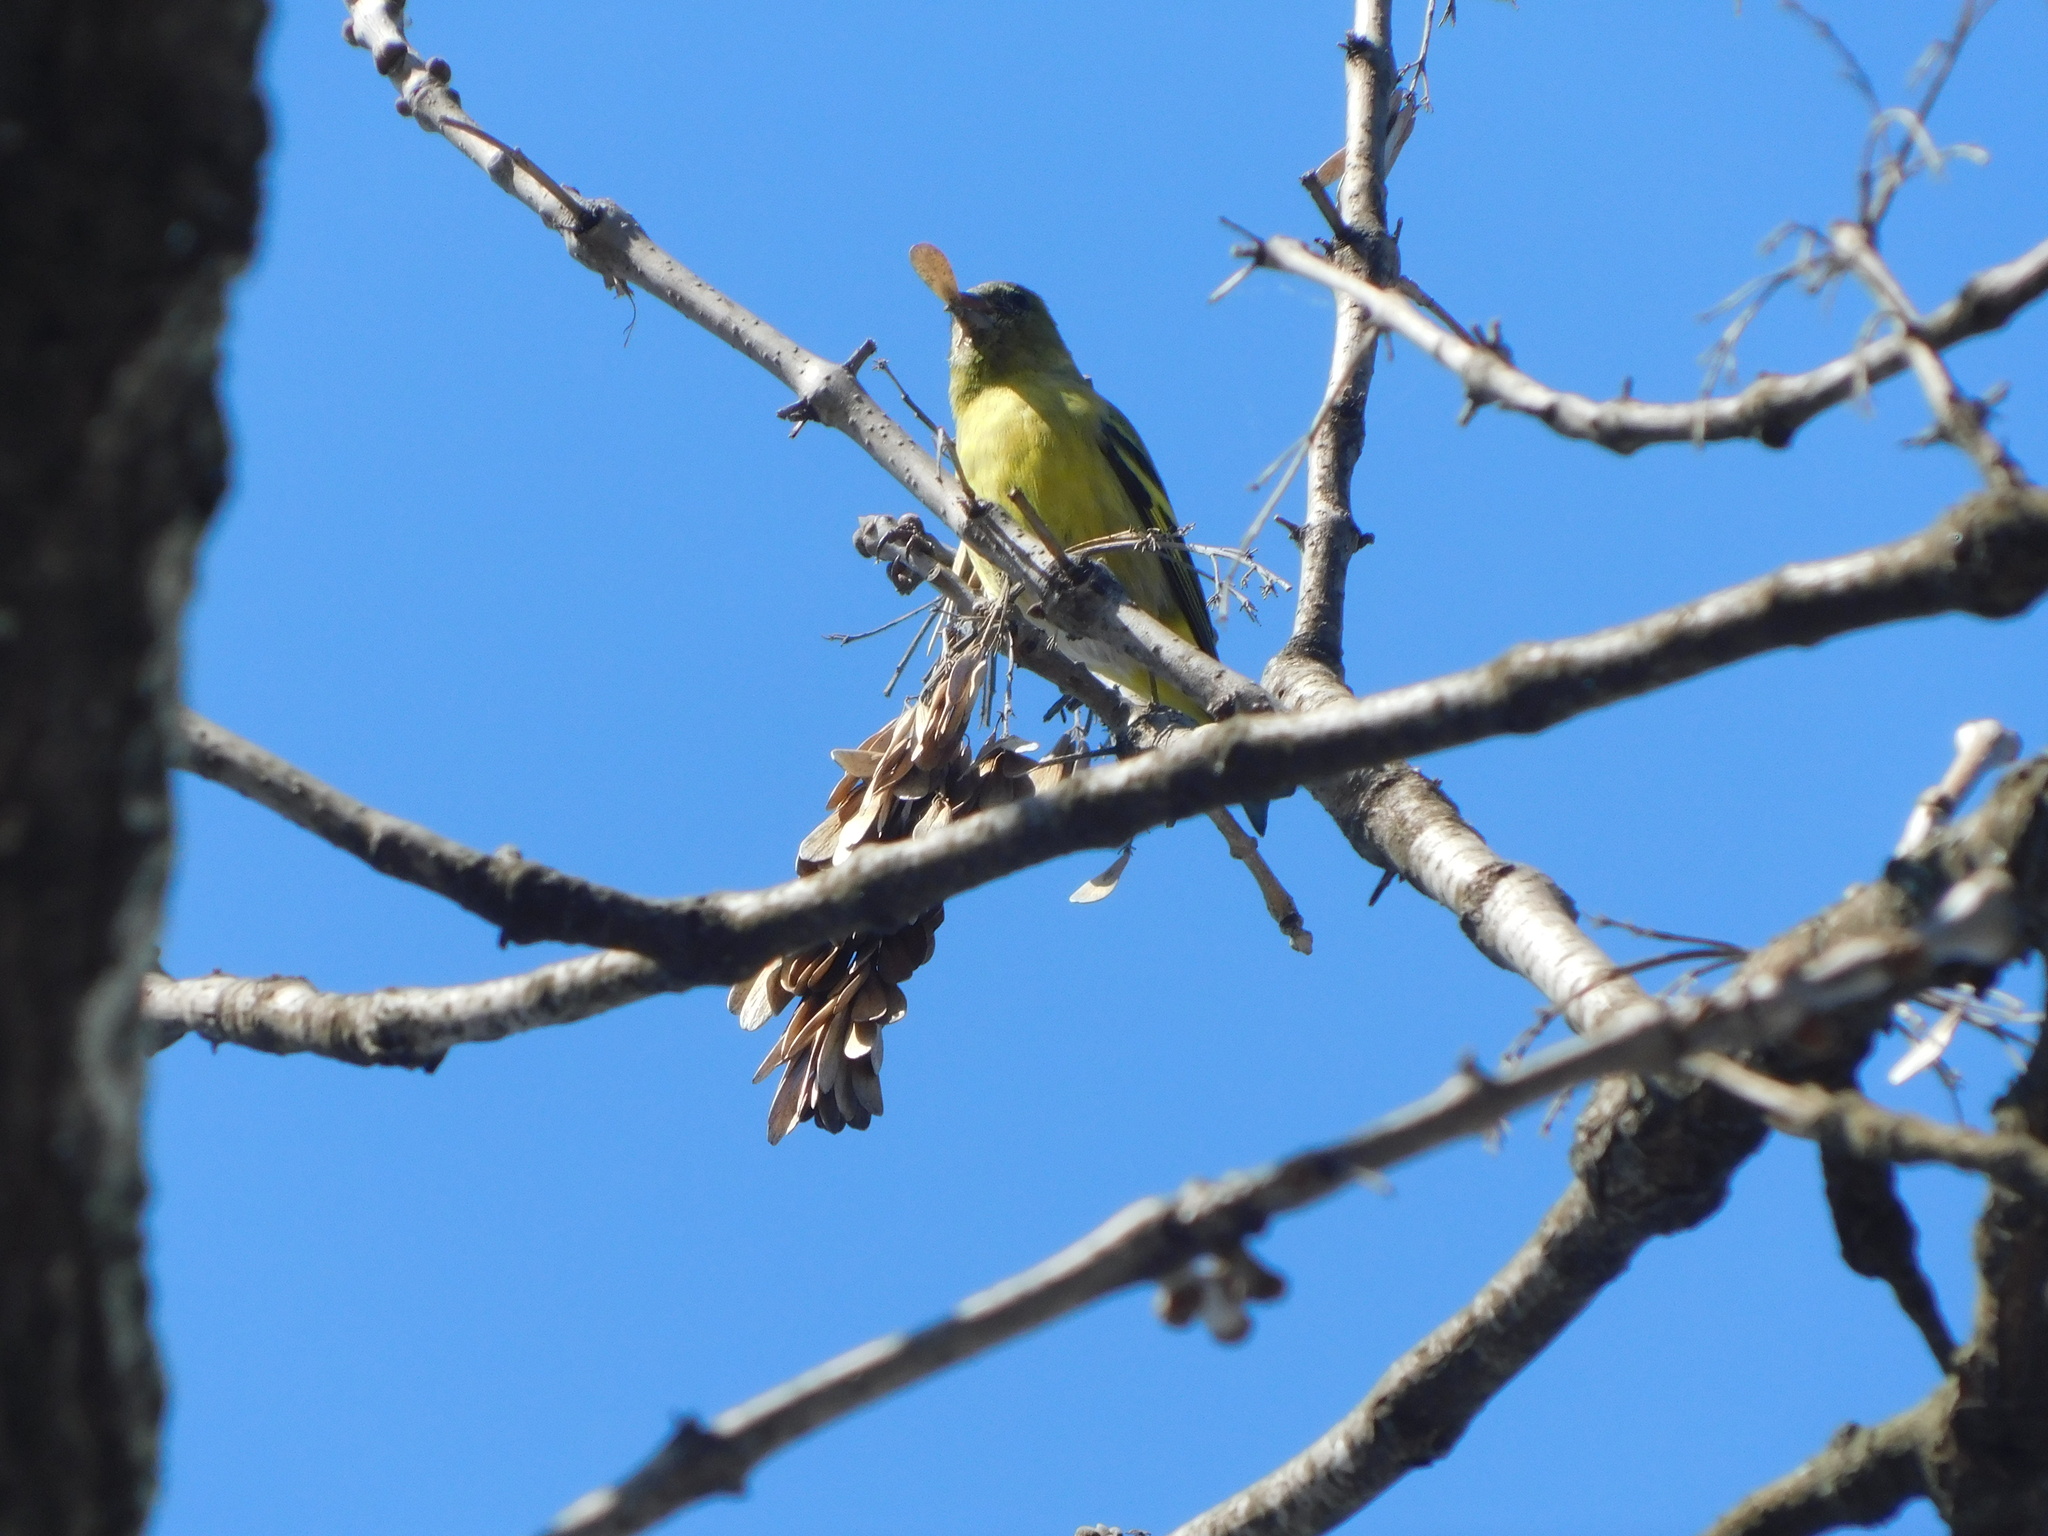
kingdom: Animalia
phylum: Chordata
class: Aves
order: Passeriformes
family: Fringillidae
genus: Spinus
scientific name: Spinus magellanicus
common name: Hooded siskin
